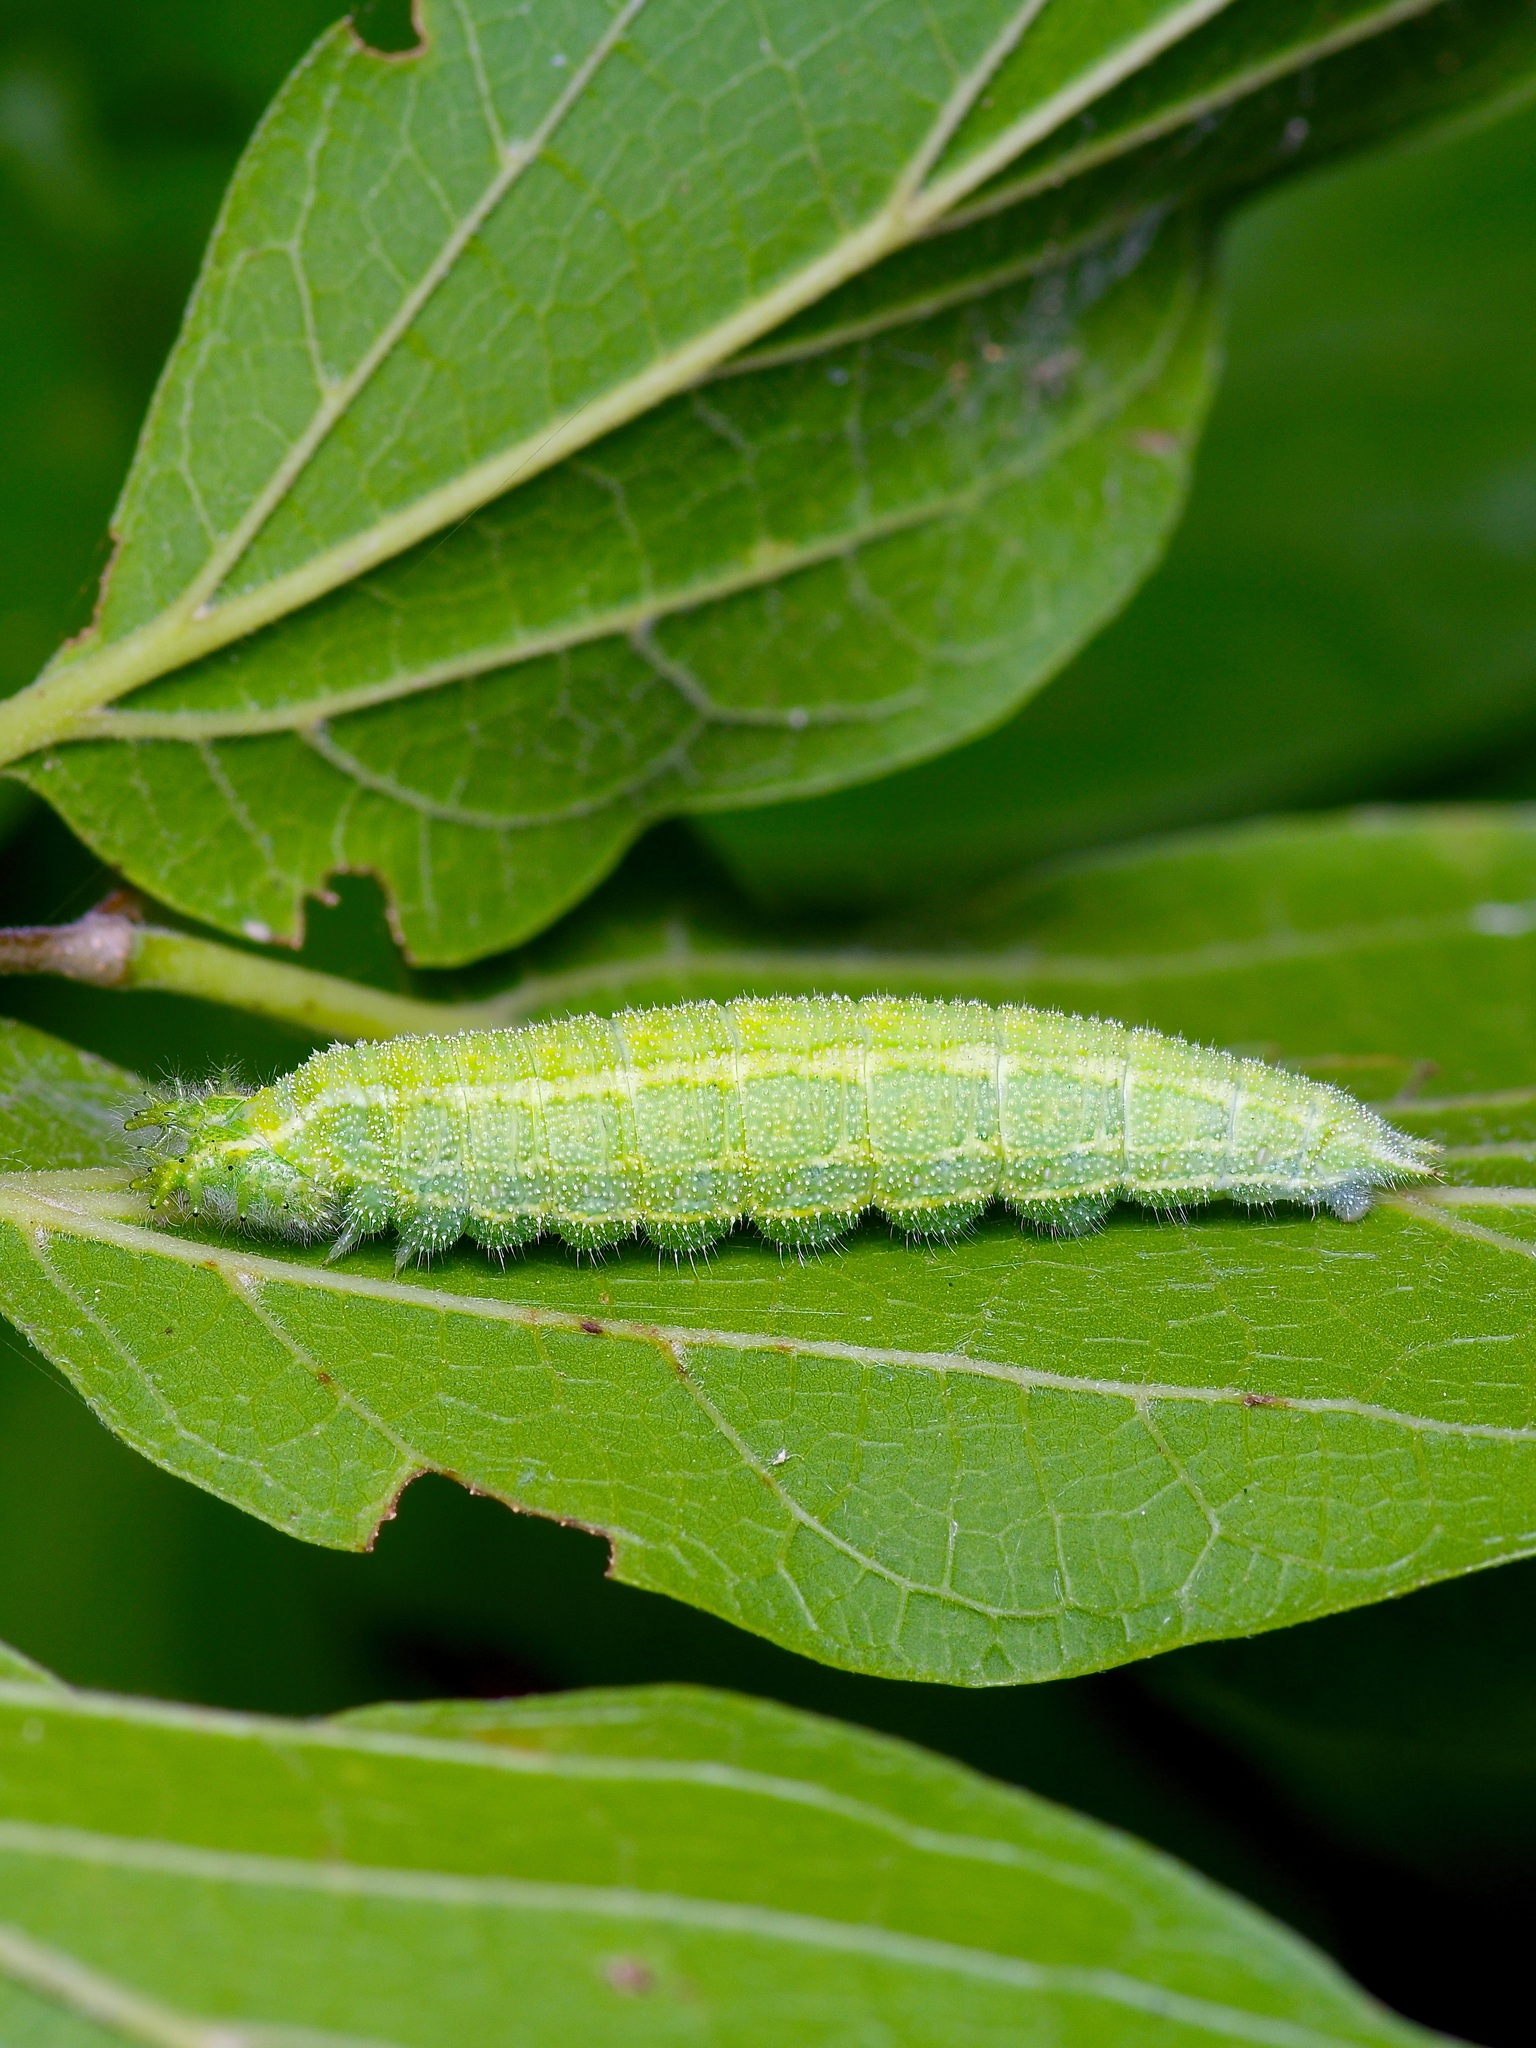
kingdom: Animalia
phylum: Arthropoda
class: Insecta
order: Lepidoptera
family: Nymphalidae
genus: Asterocampa
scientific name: Asterocampa clyton
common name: Tawny emperor
